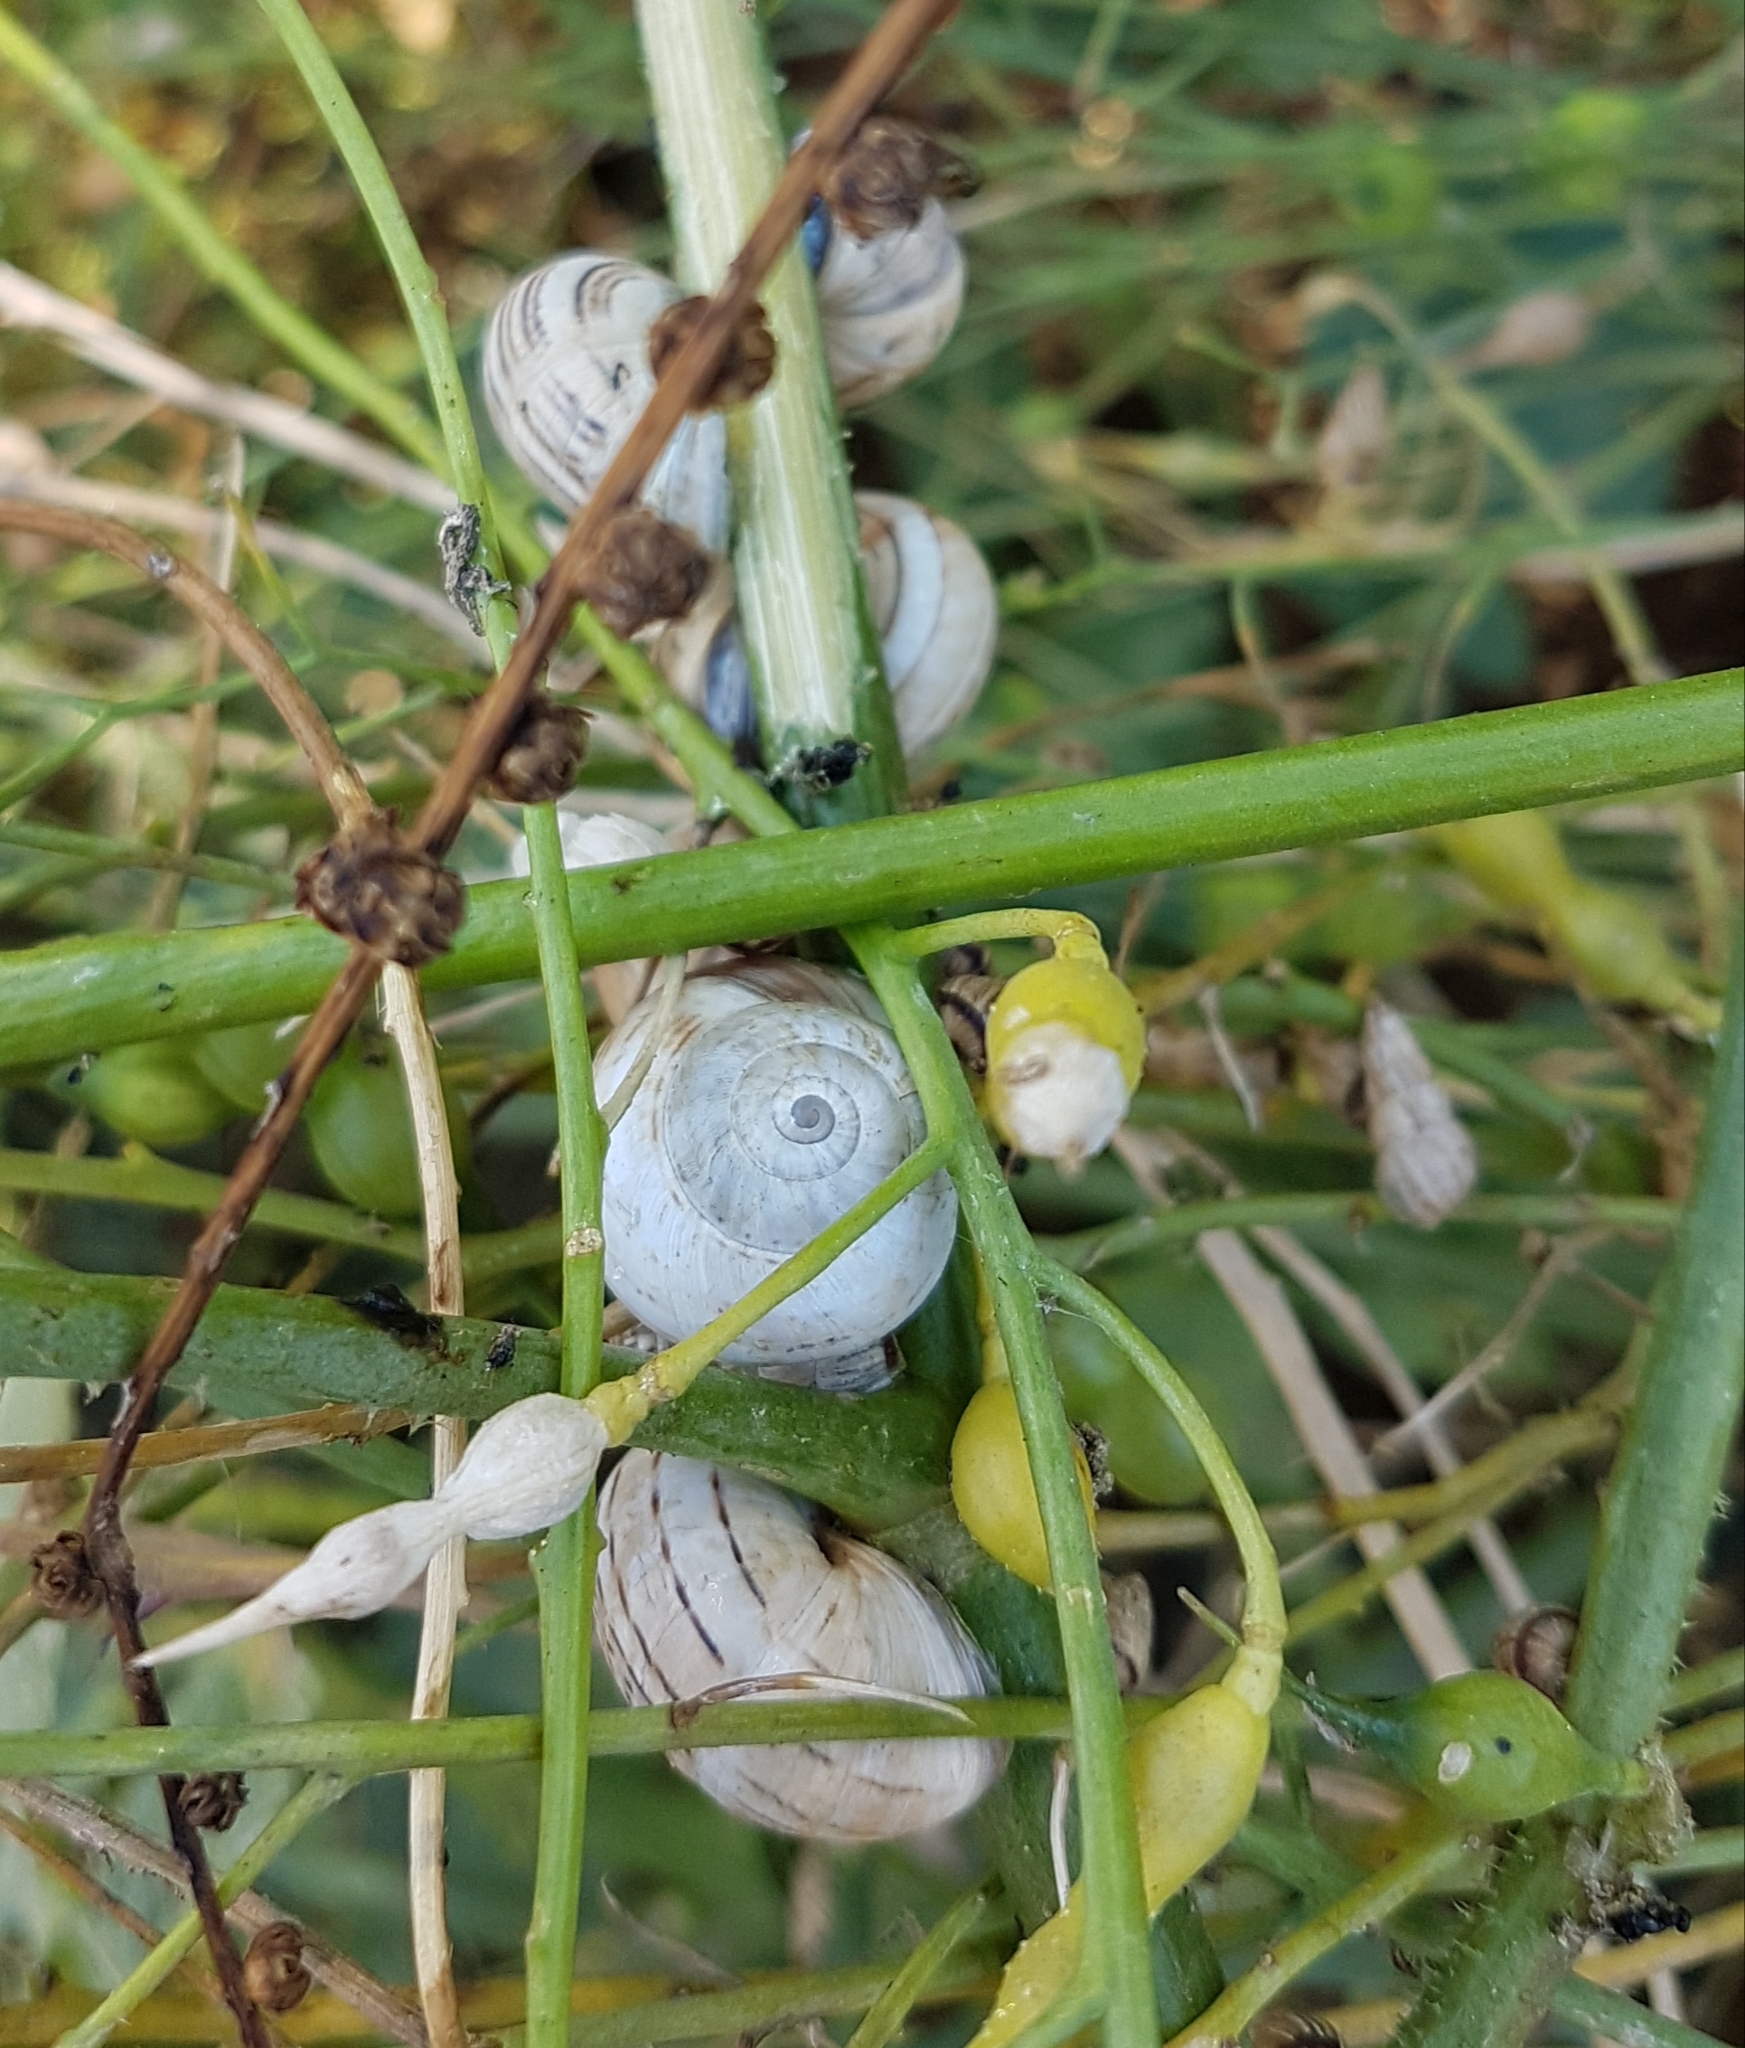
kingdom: Animalia
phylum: Mollusca
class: Gastropoda
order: Stylommatophora
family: Helicidae
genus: Theba
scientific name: Theba pisana
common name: White snail
